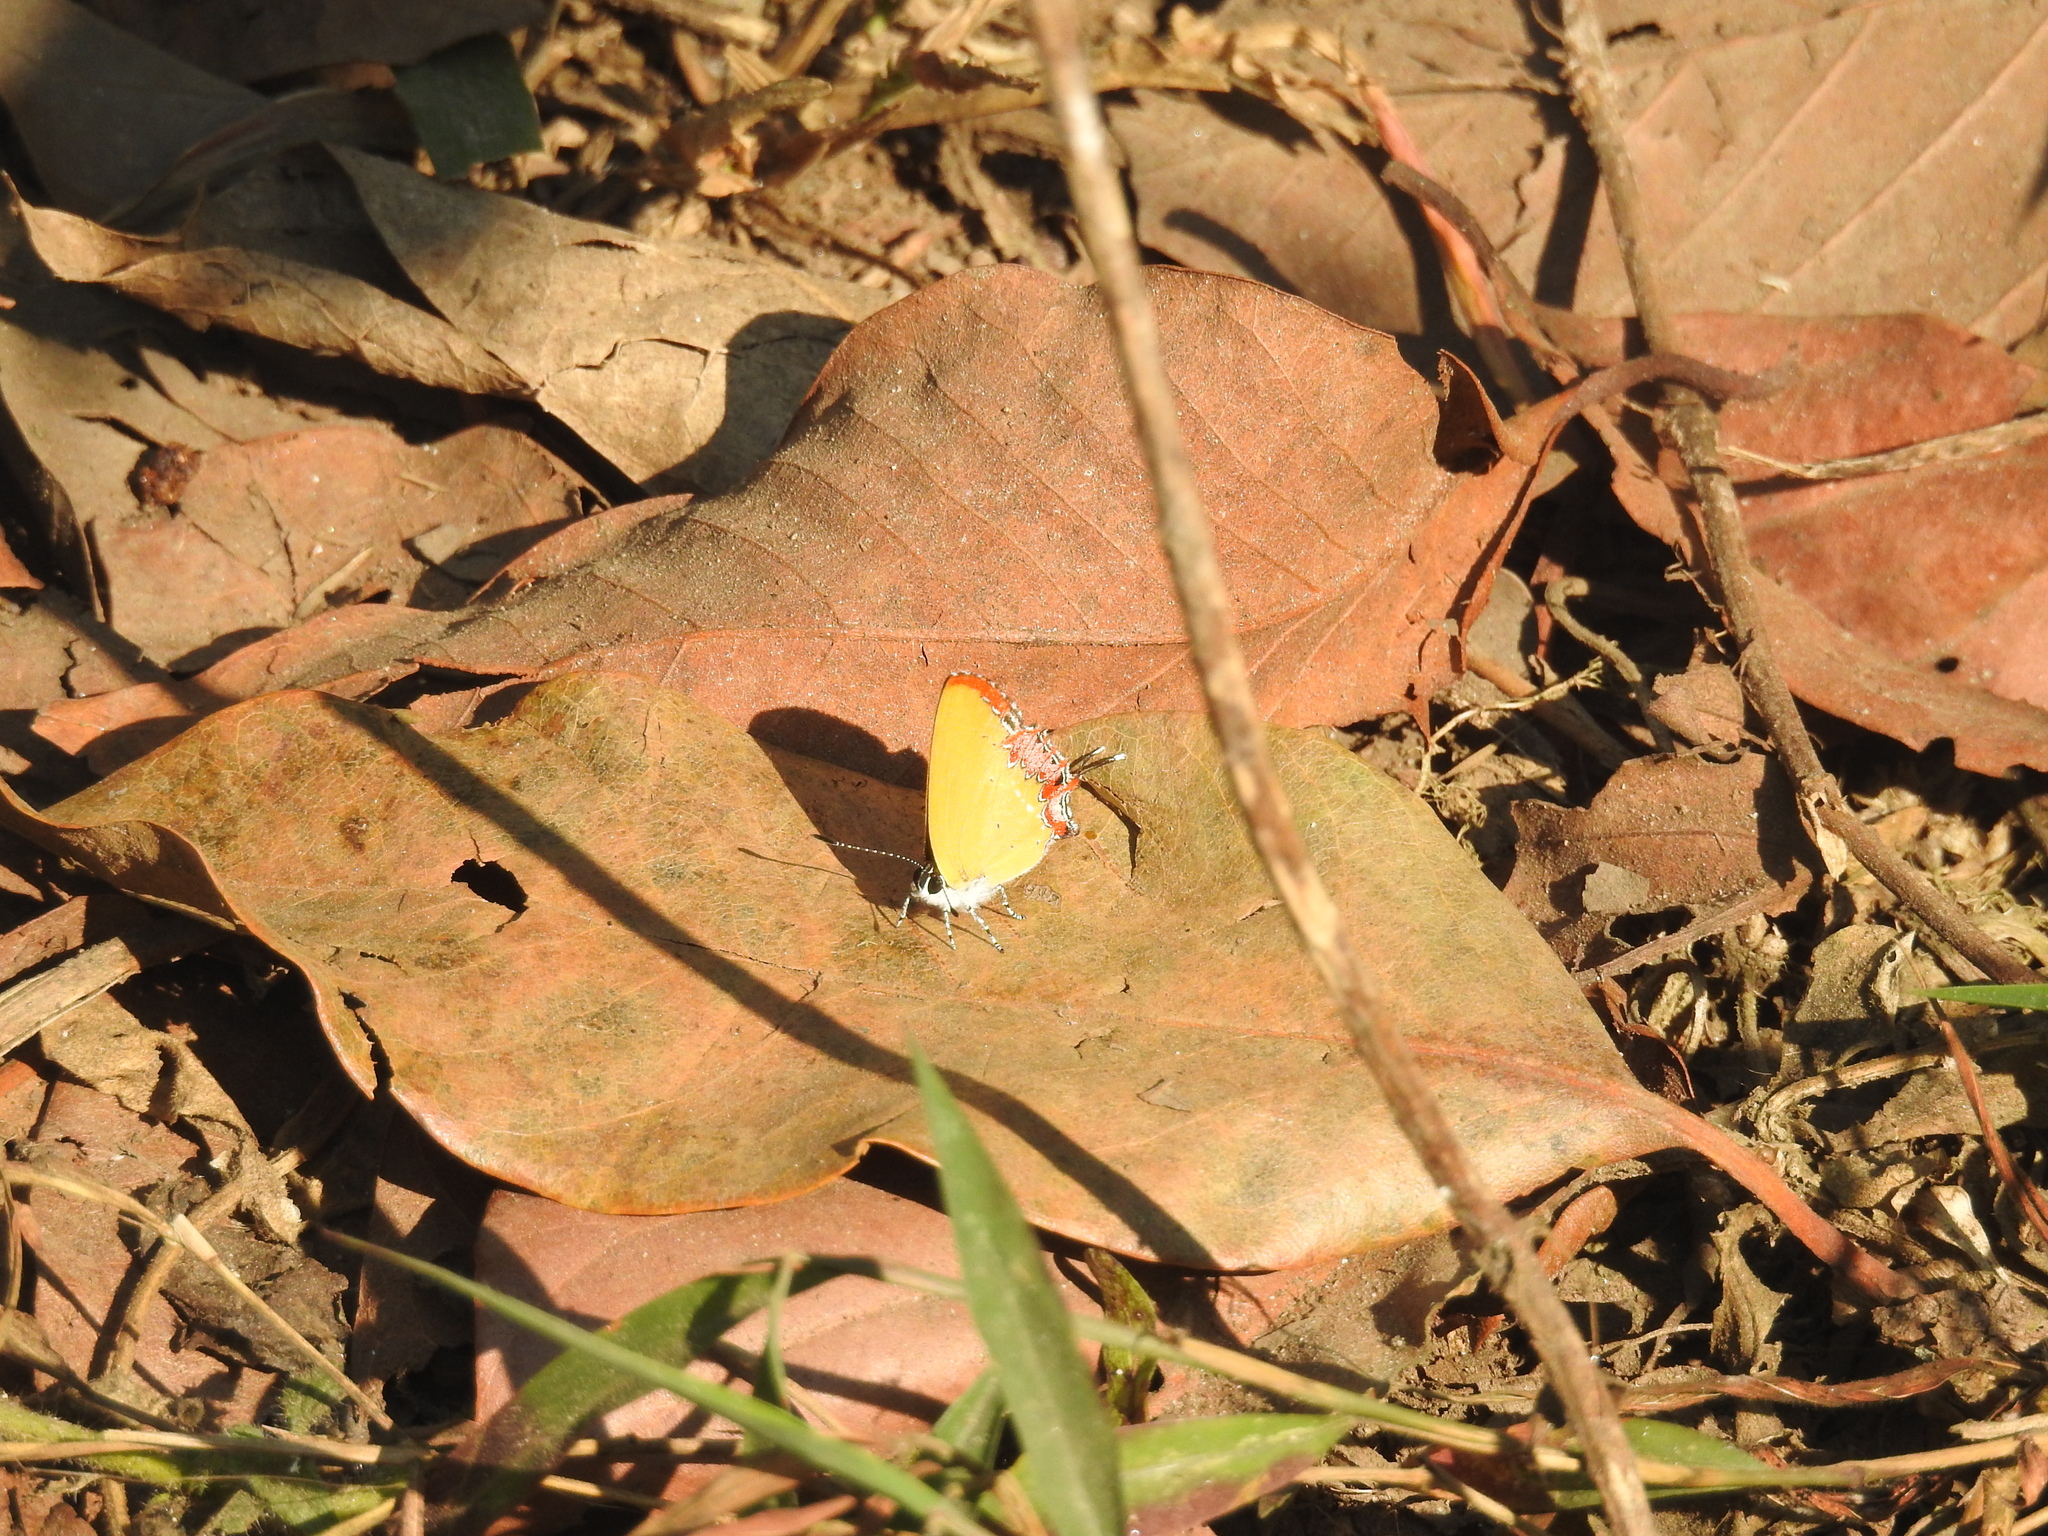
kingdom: Animalia
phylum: Arthropoda
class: Insecta
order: Lepidoptera
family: Lycaenidae
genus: Heliophorus
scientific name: Heliophorus epicles
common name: Purple sapphire
